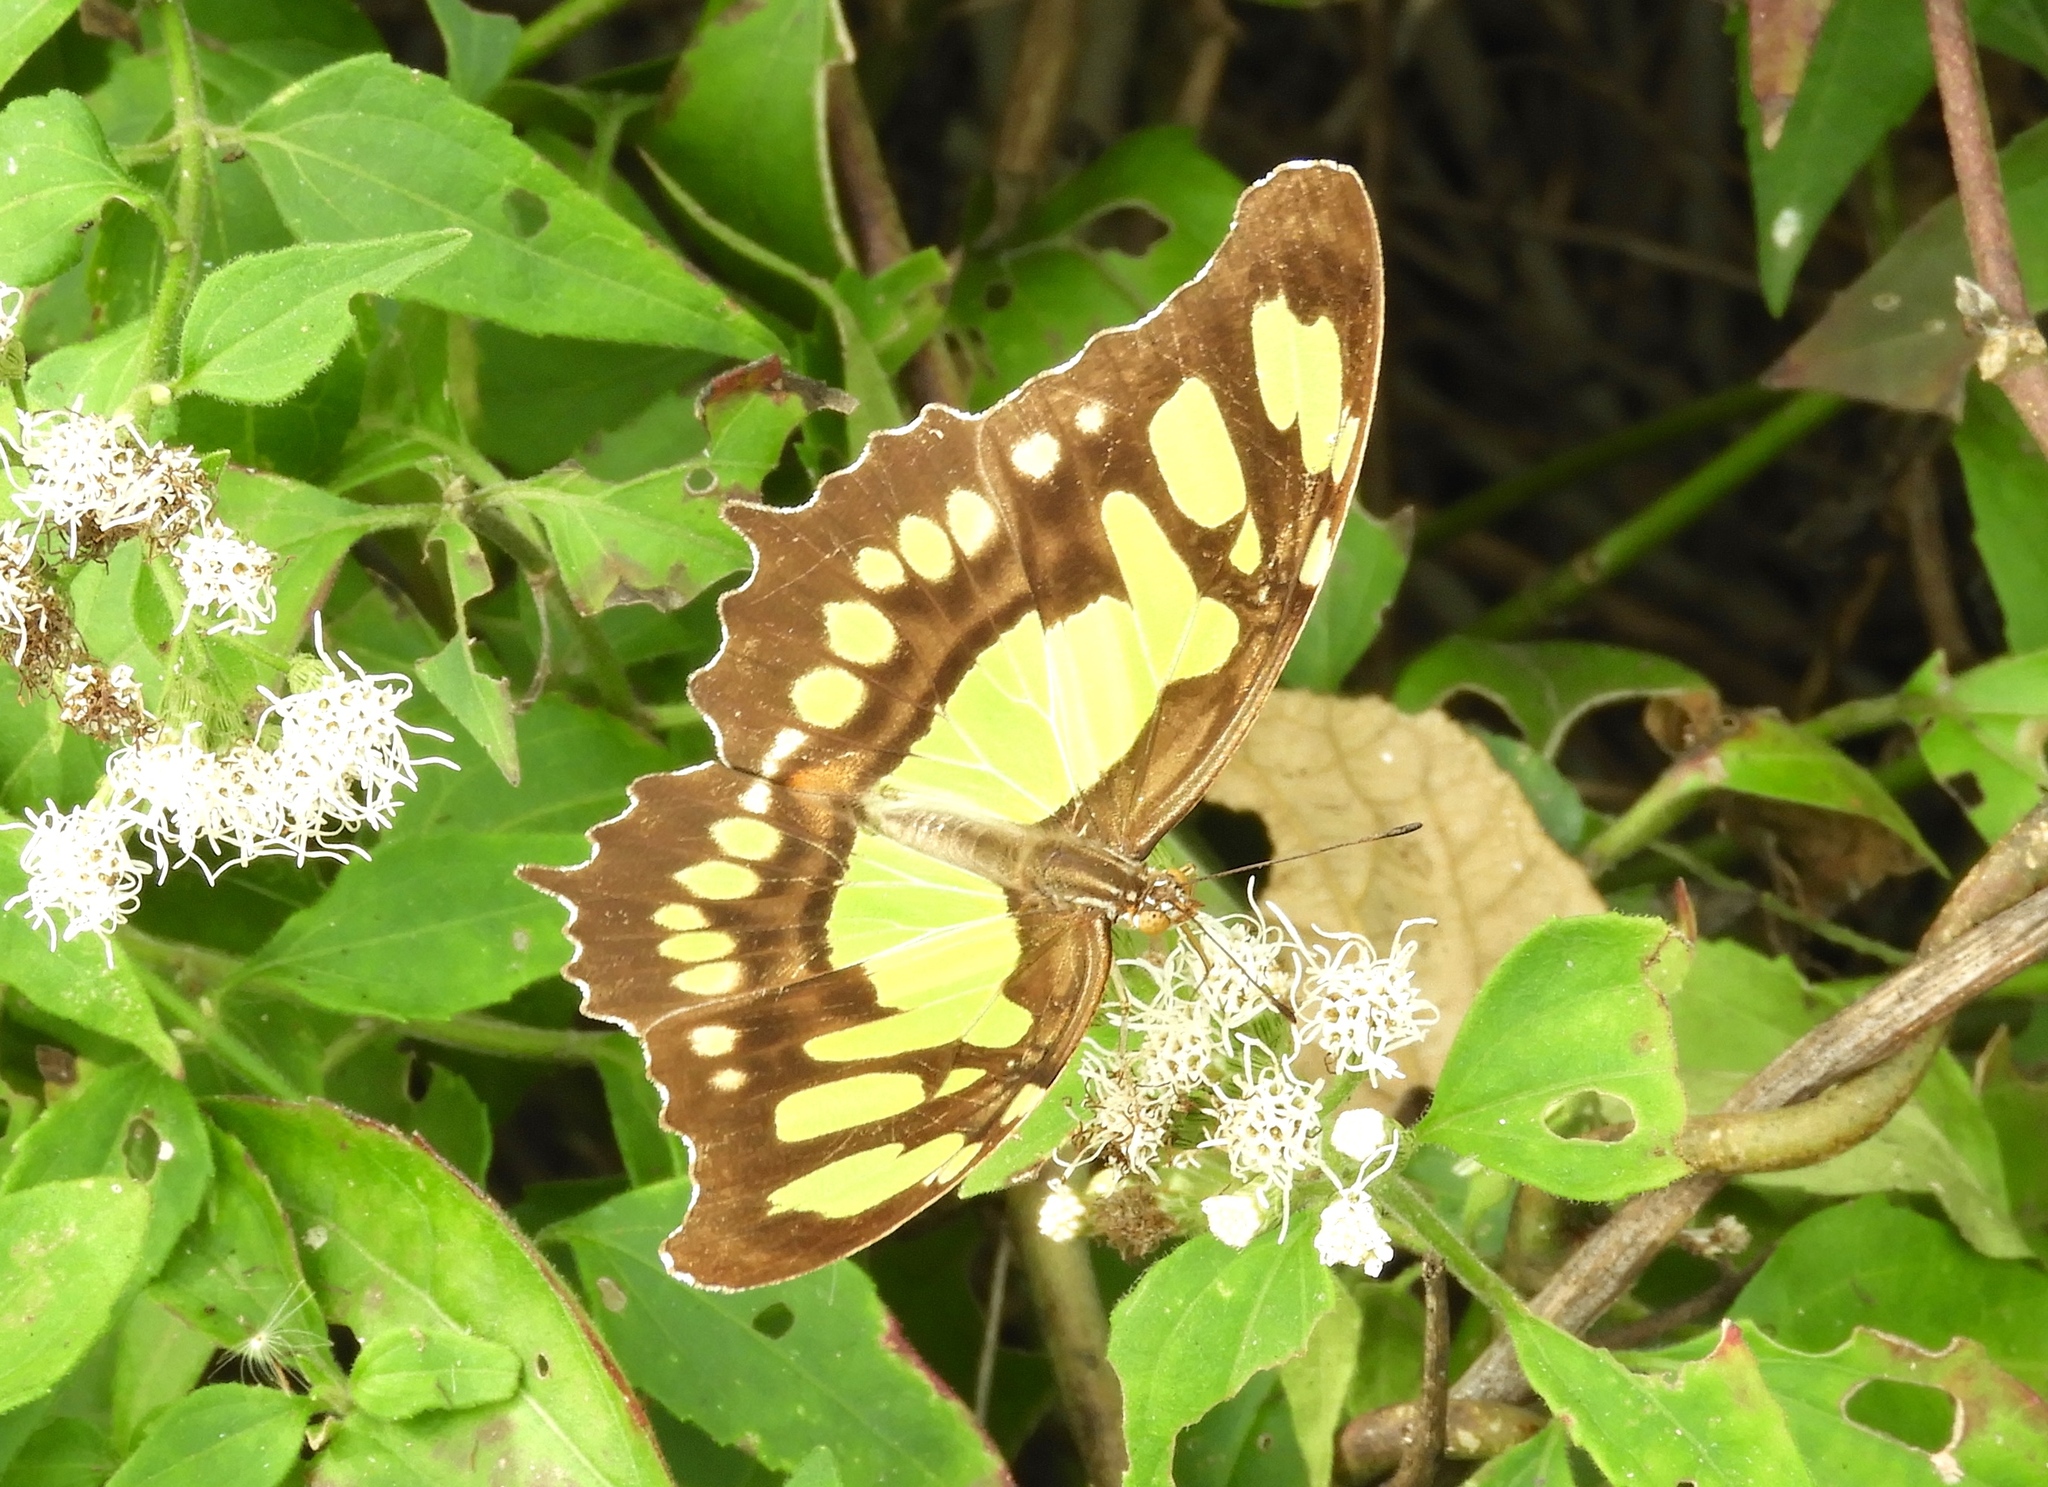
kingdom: Animalia
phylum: Arthropoda
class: Insecta
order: Lepidoptera
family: Nymphalidae
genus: Siproeta
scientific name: Siproeta stelenes
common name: Malachite
